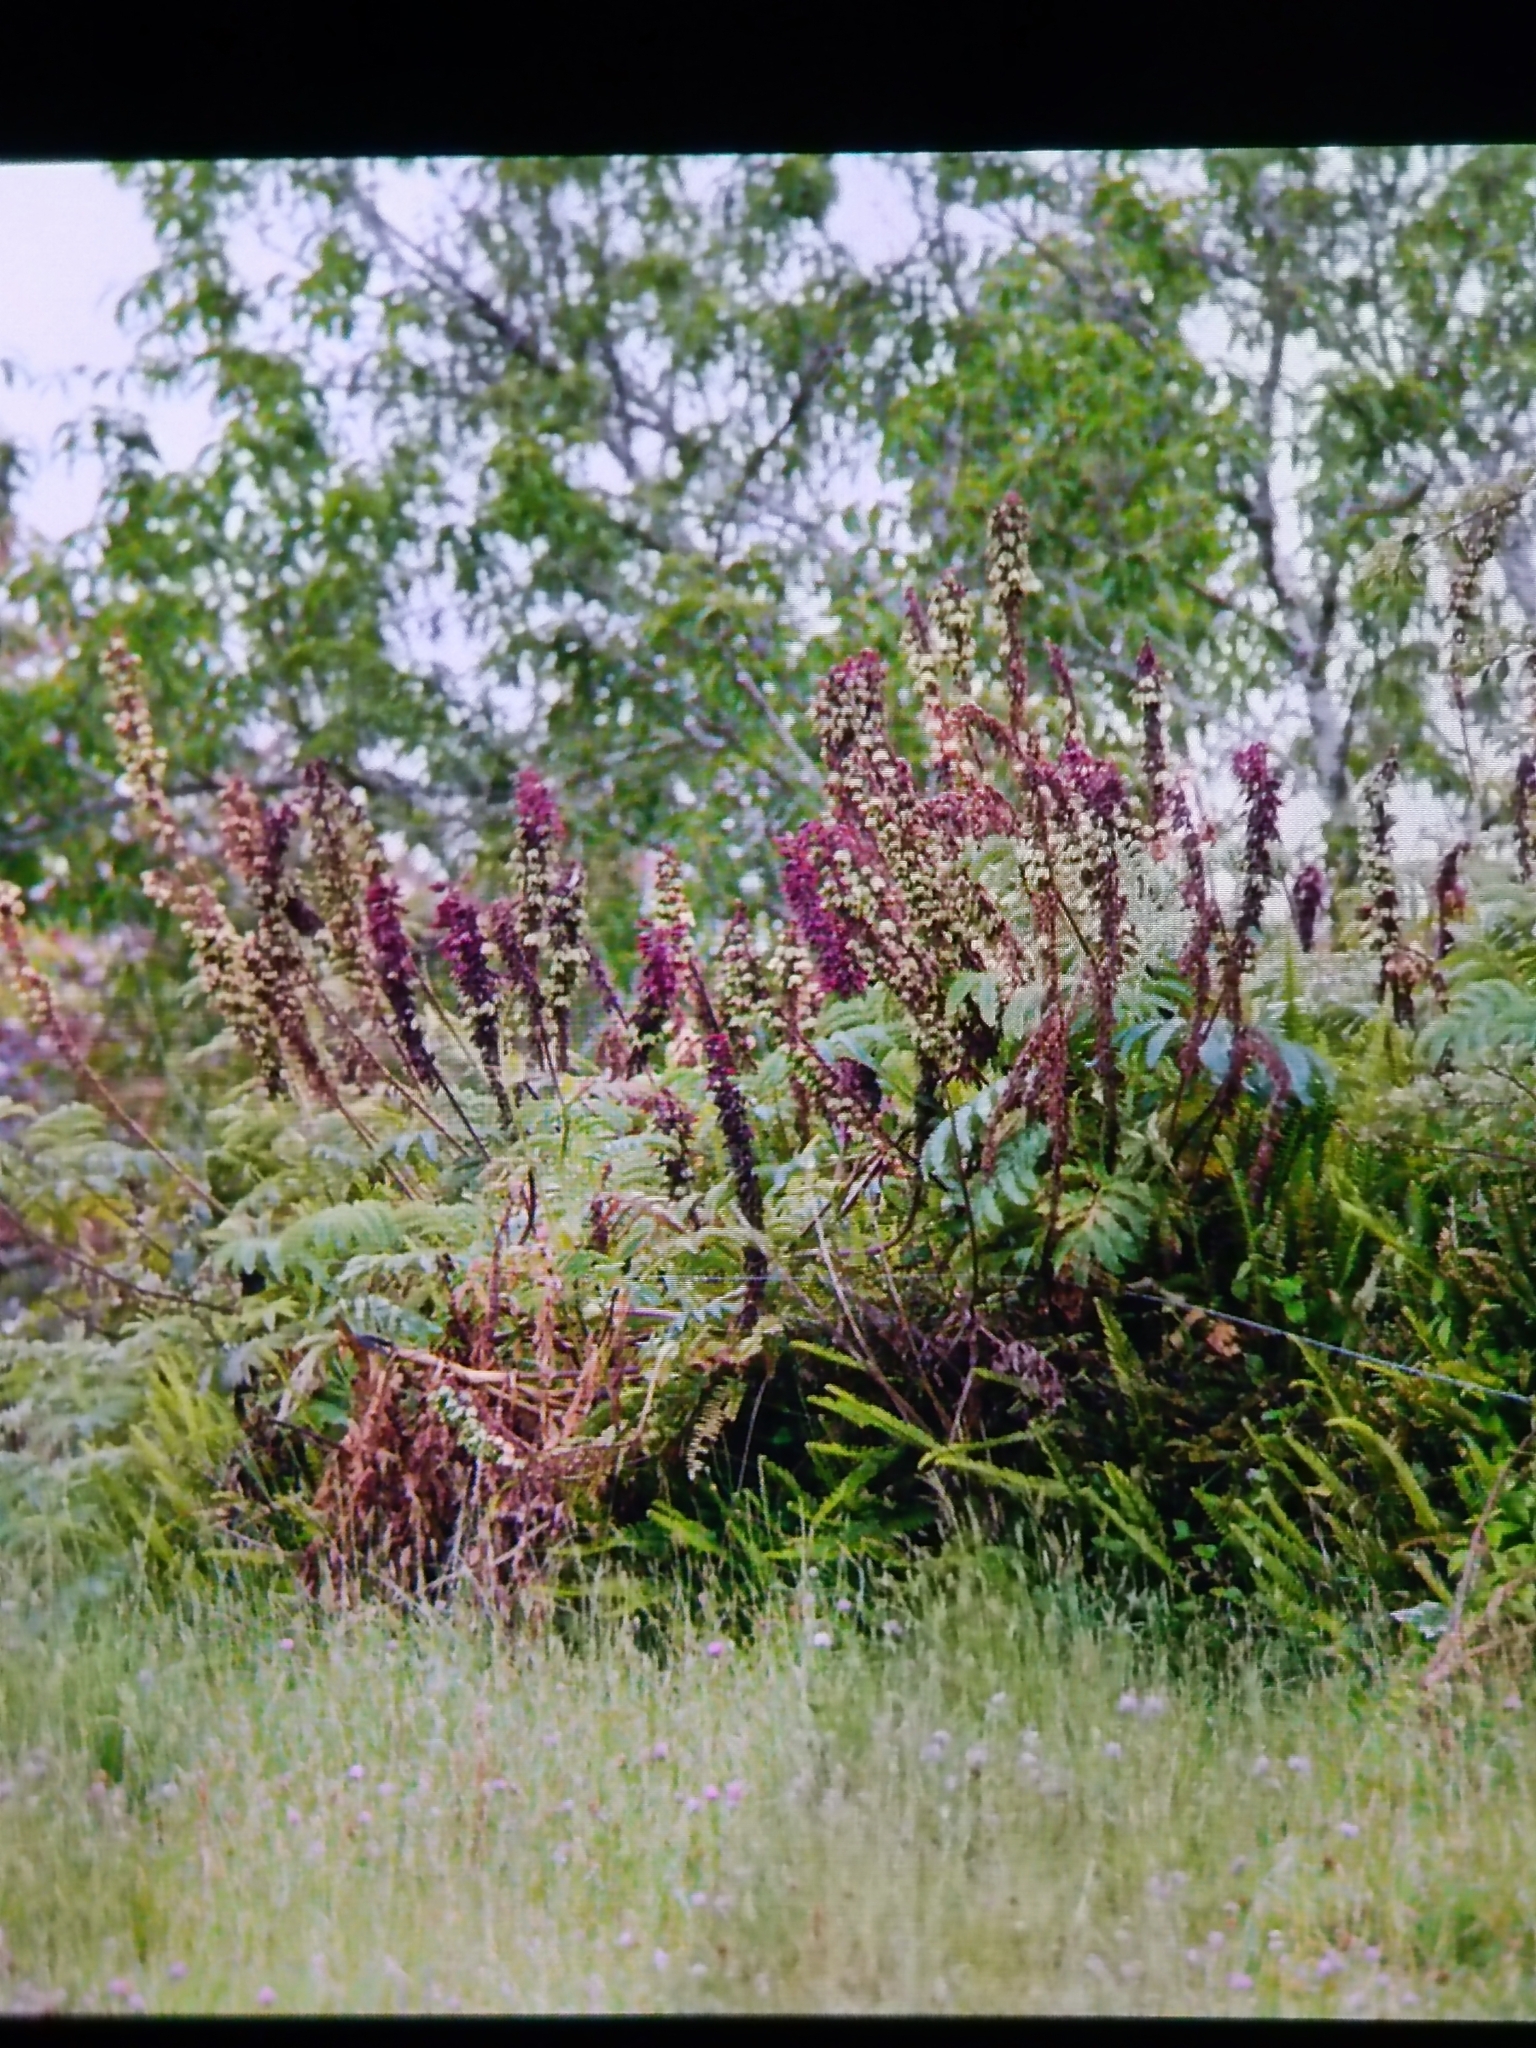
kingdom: Plantae
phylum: Tracheophyta
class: Magnoliopsida
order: Geraniales
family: Melianthaceae
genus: Melianthus
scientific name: Melianthus major
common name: Honey-flower
